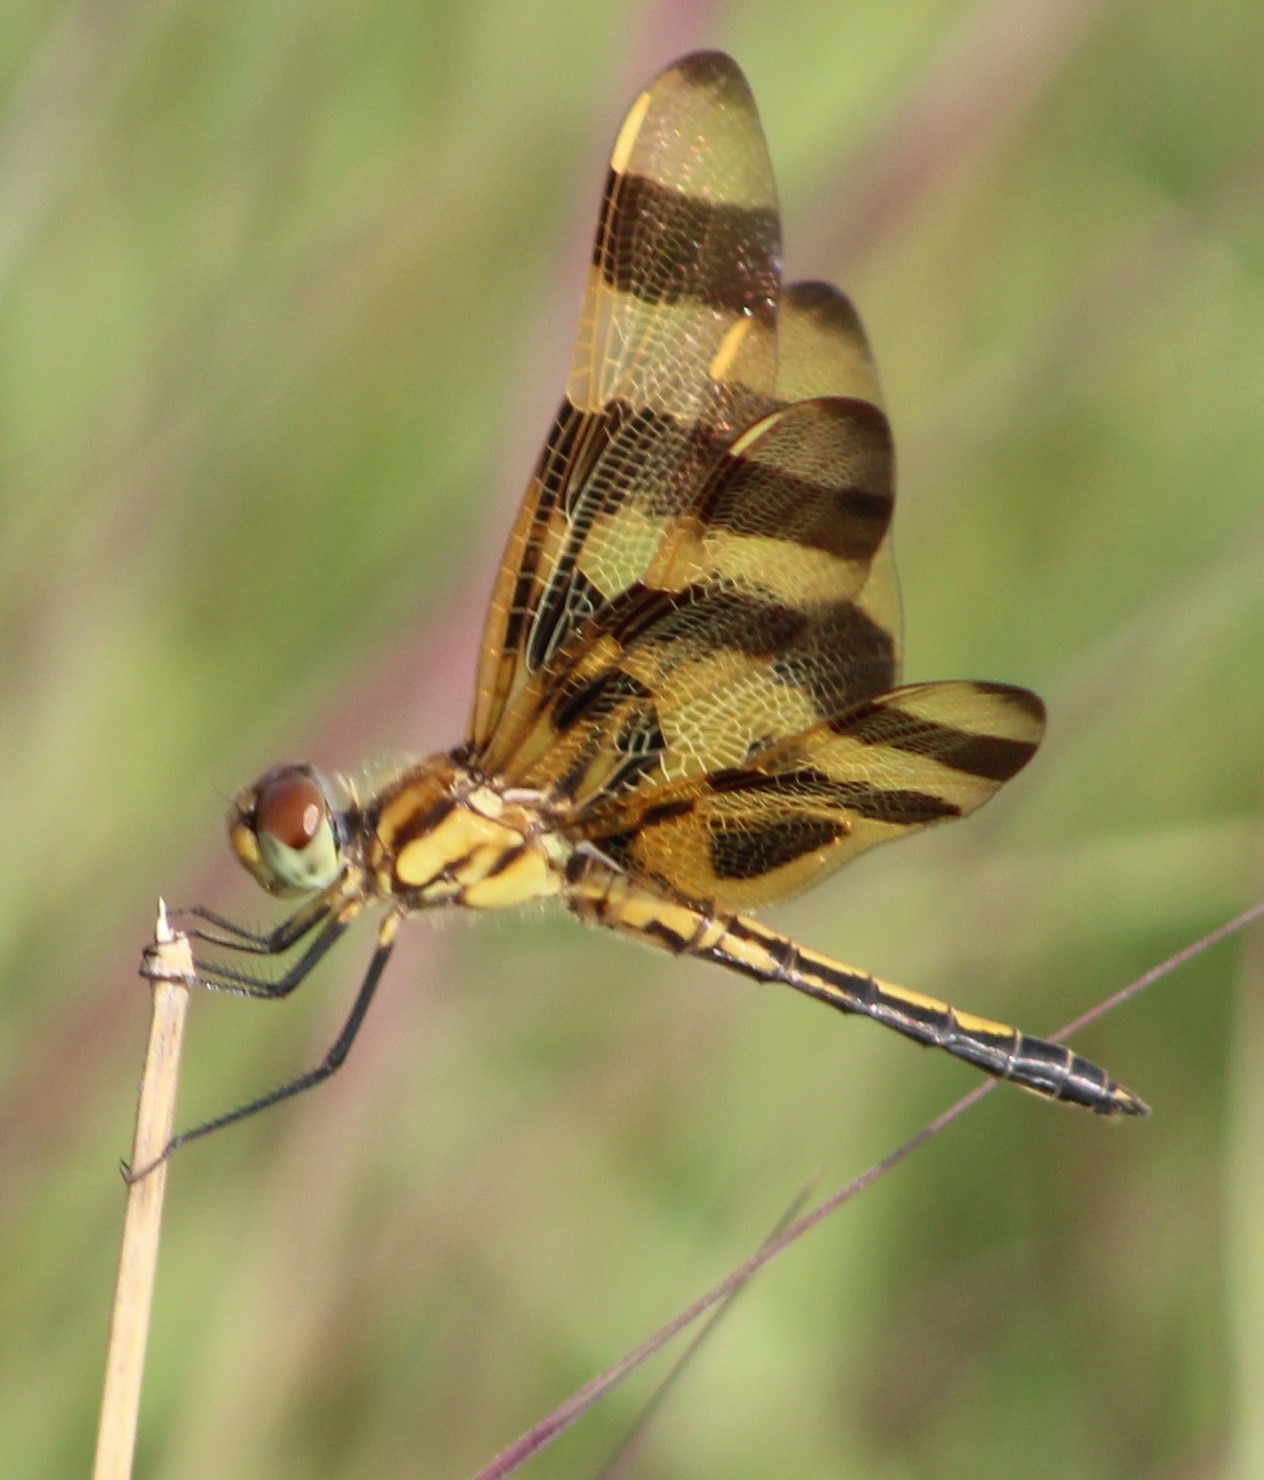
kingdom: Animalia
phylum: Arthropoda
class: Insecta
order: Odonata
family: Libellulidae
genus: Celithemis
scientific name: Celithemis eponina
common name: Halloween pennant
